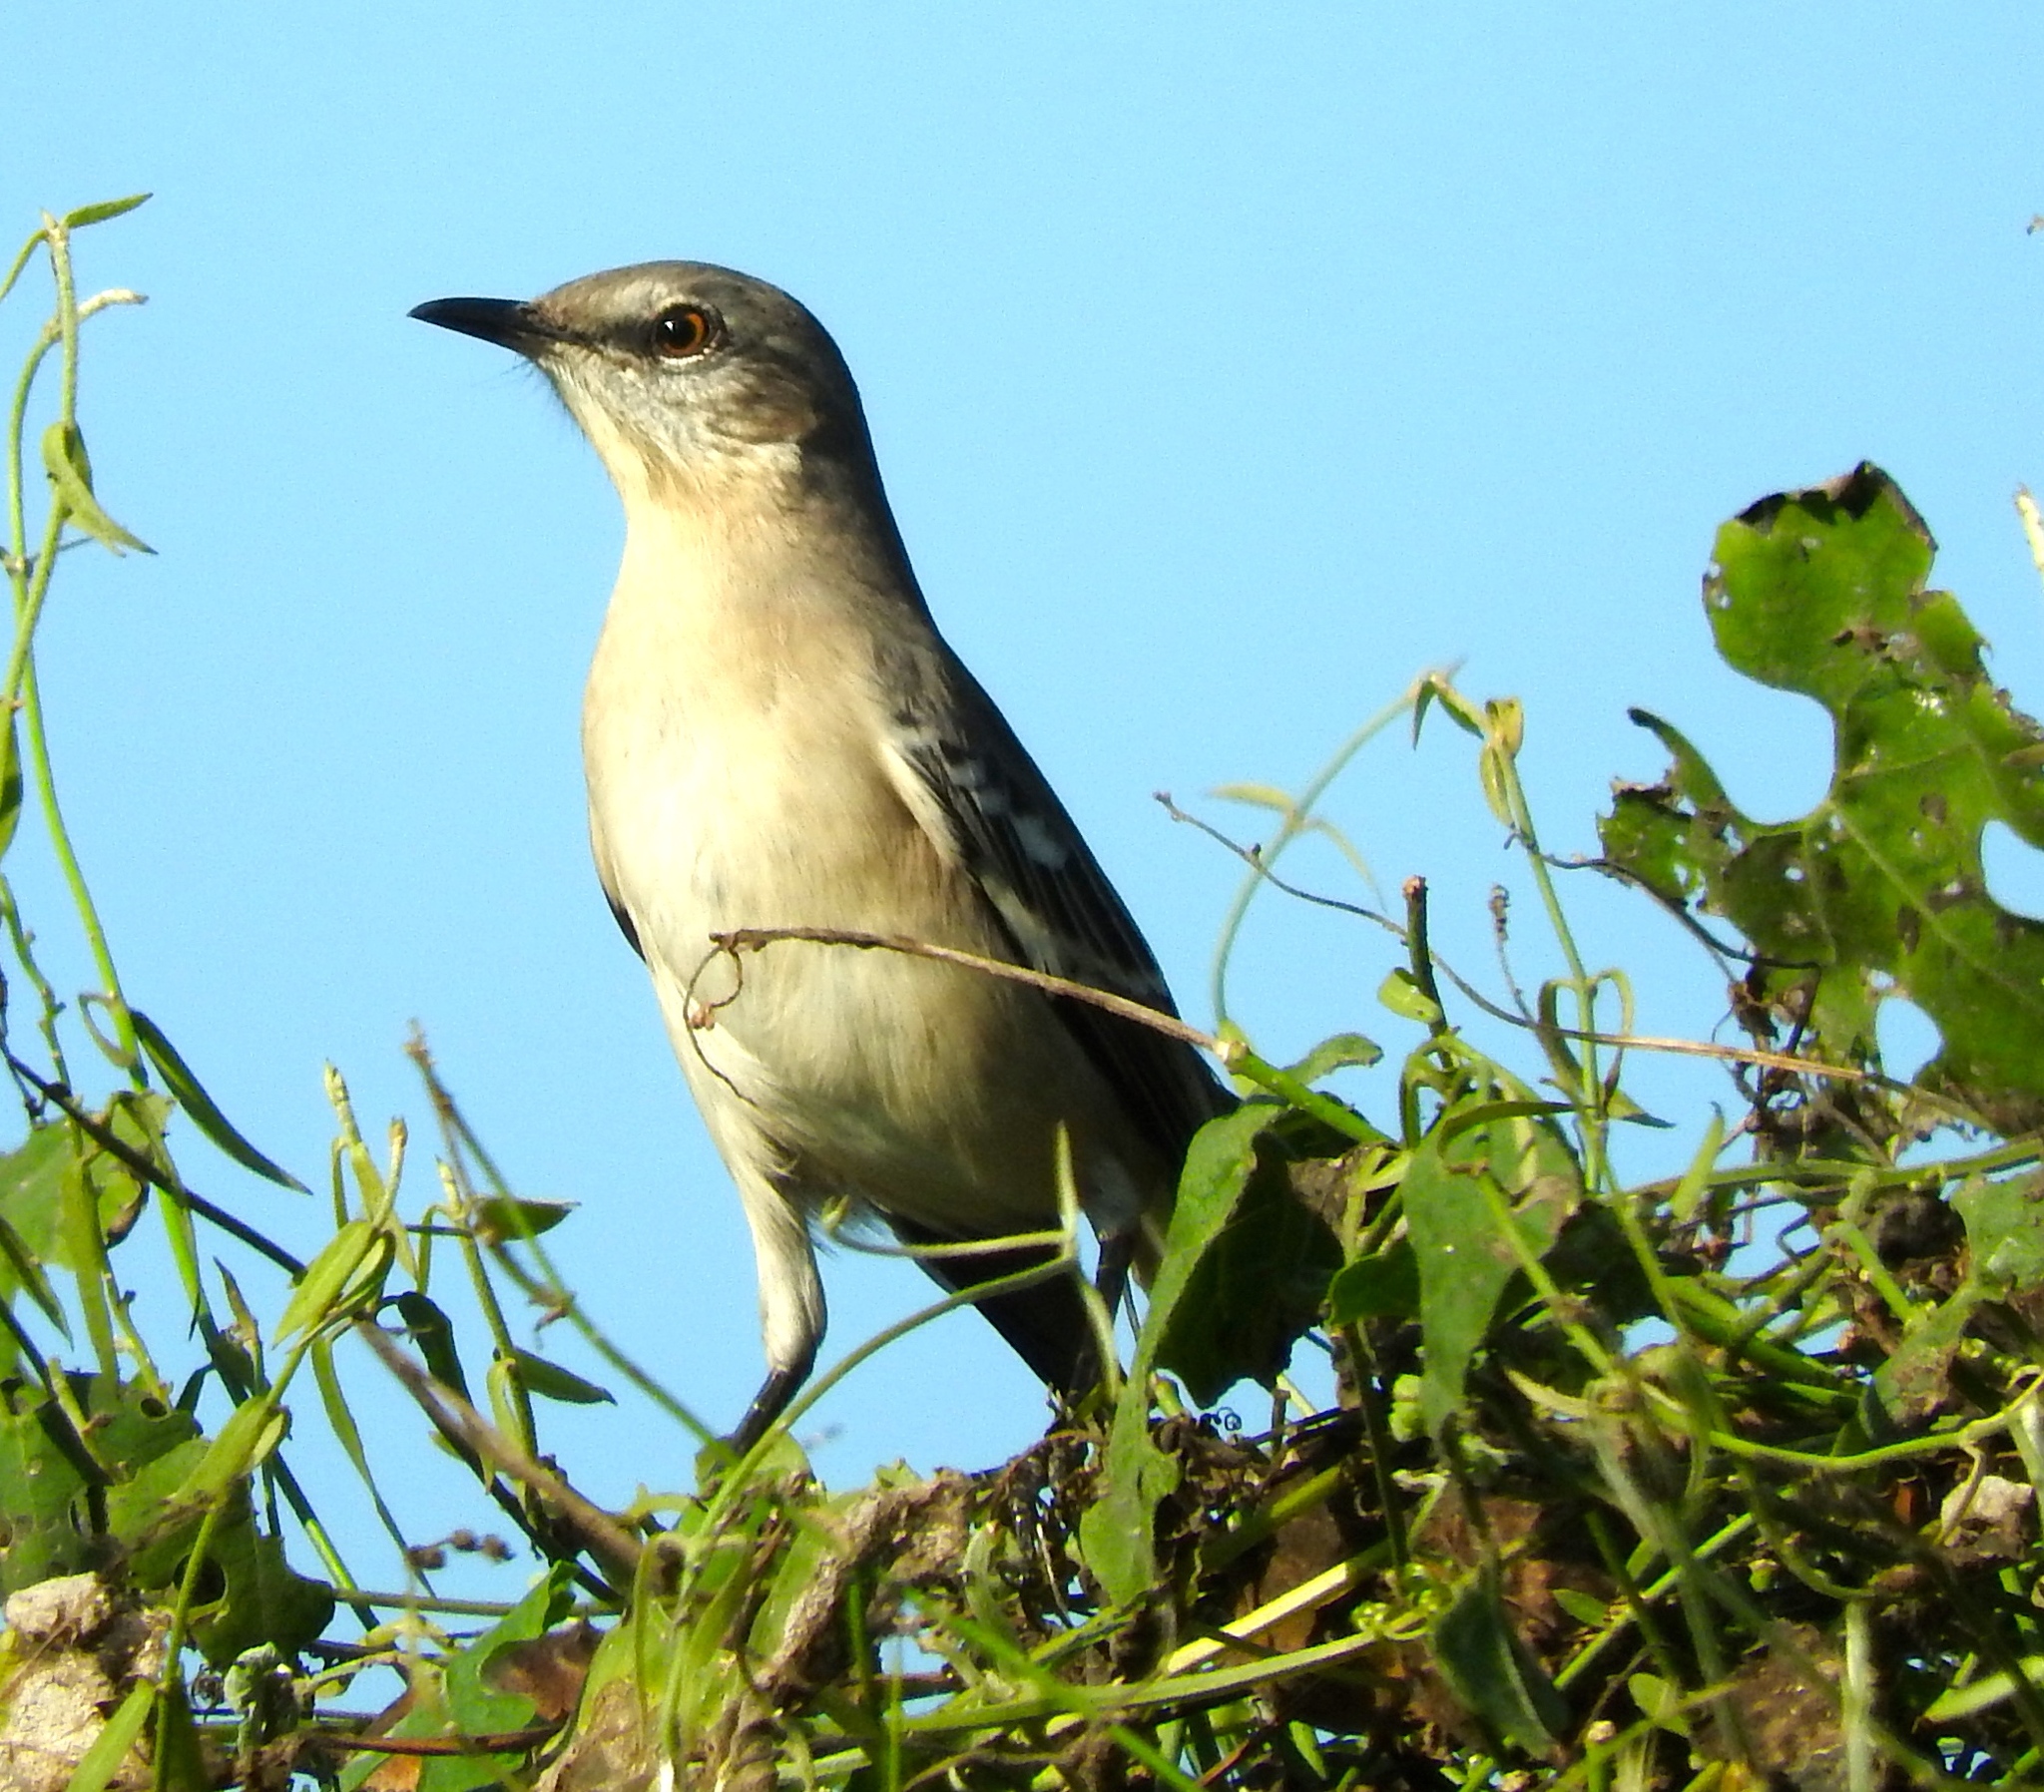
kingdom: Animalia
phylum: Chordata
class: Aves
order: Passeriformes
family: Mimidae
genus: Mimus
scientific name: Mimus polyglottos
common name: Northern mockingbird
